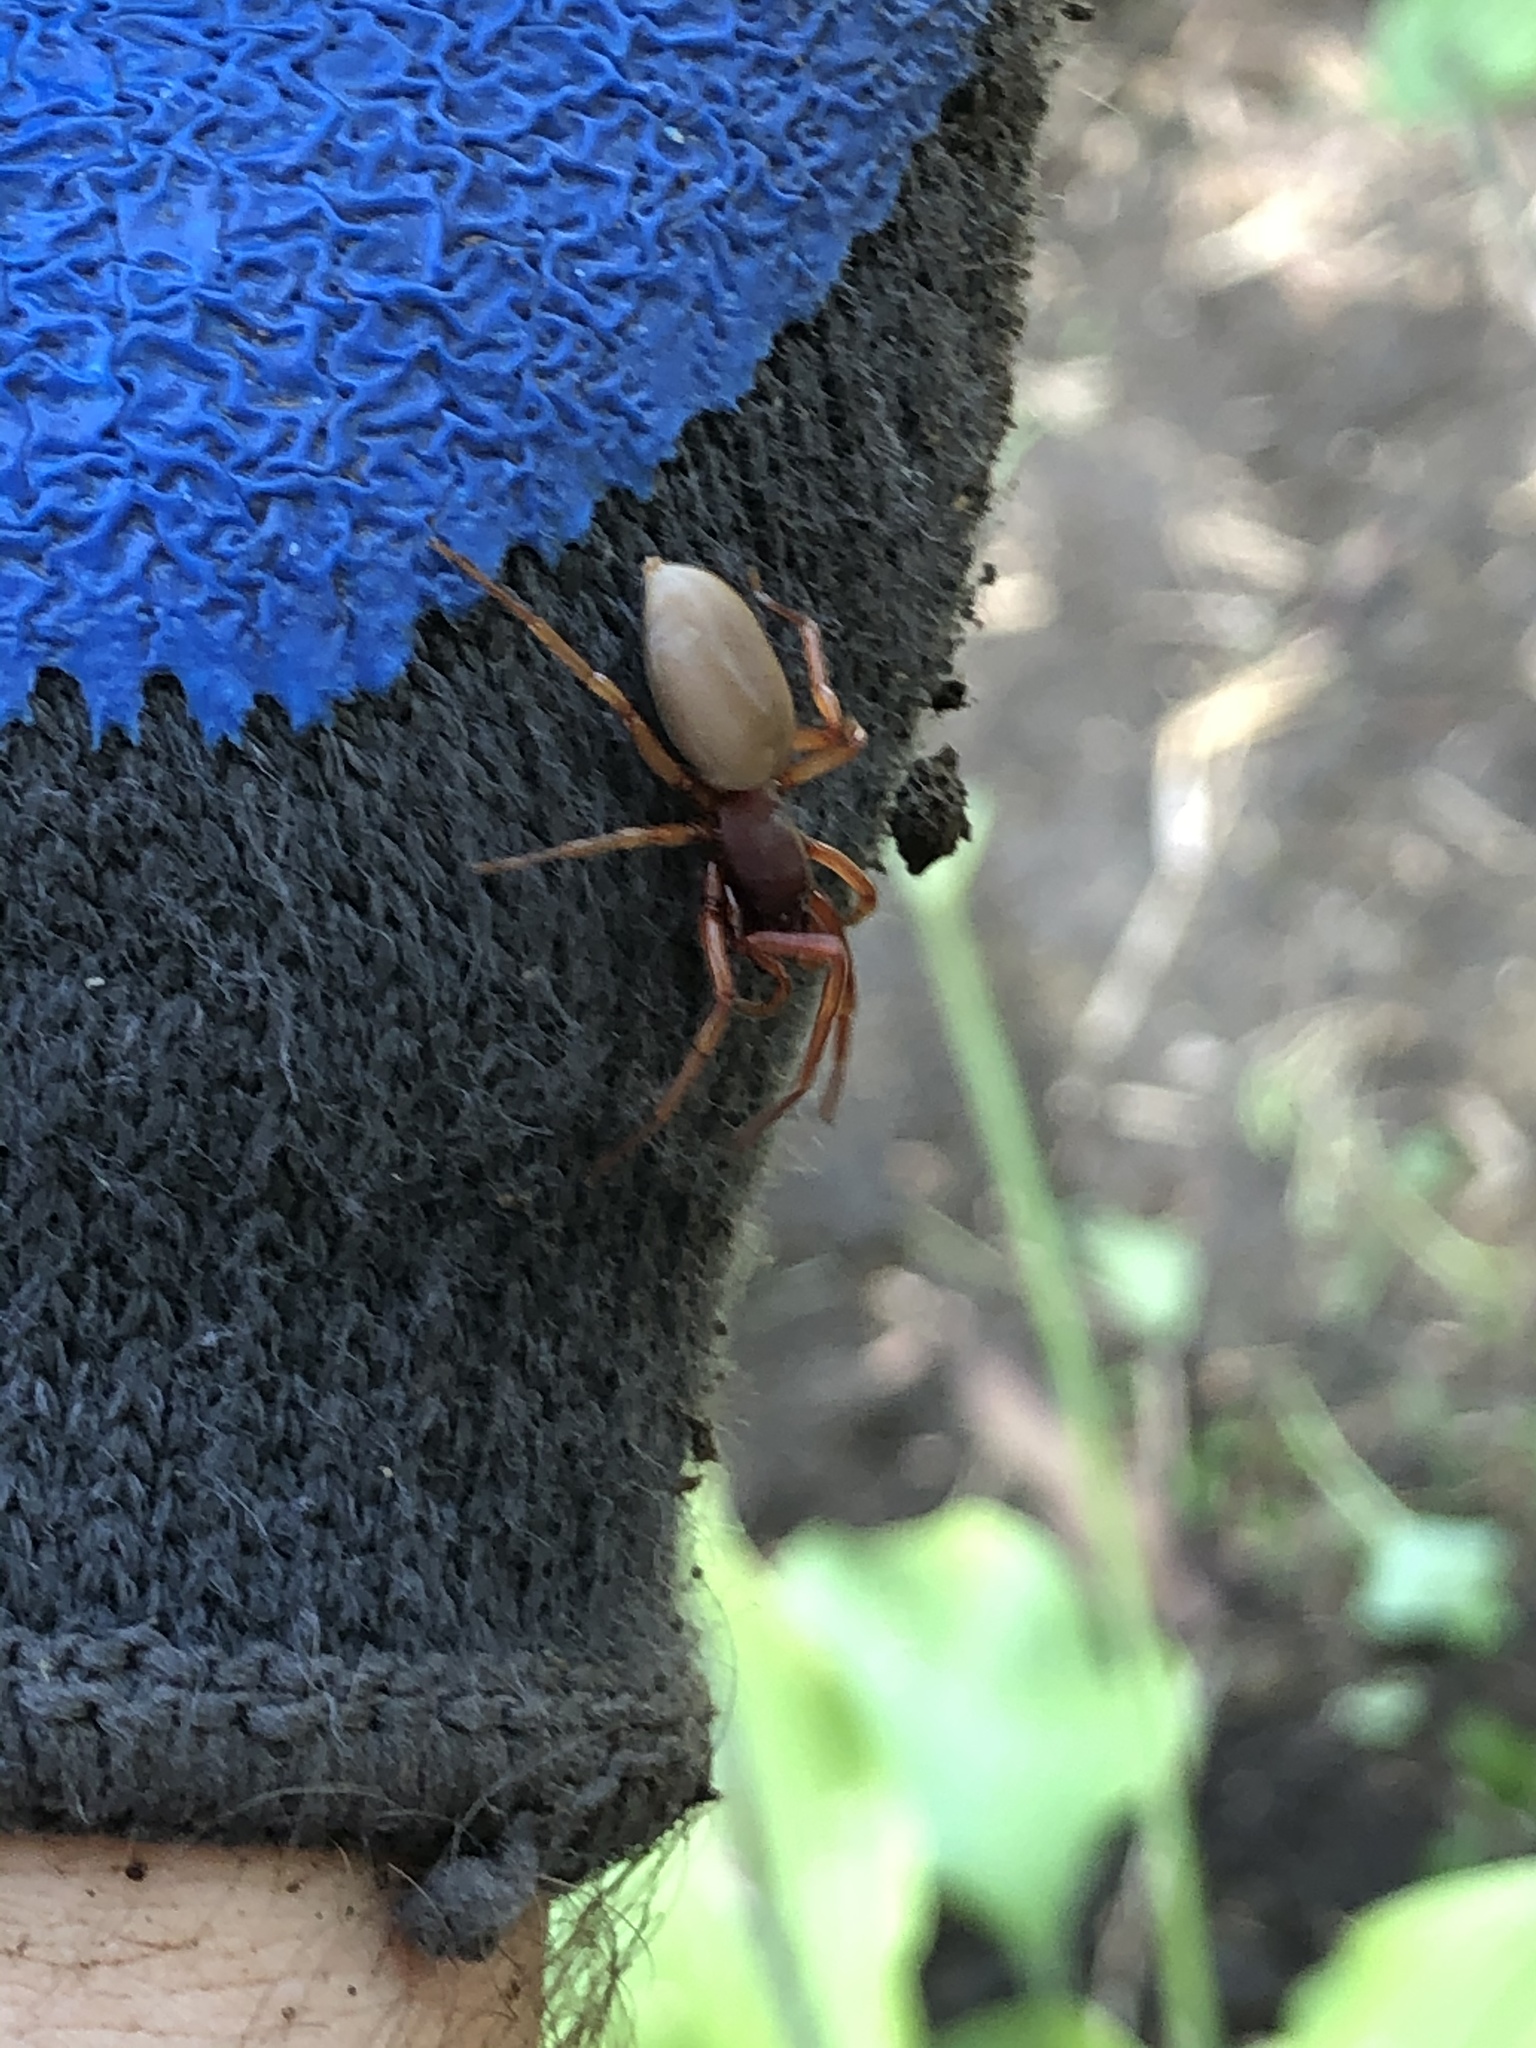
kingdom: Animalia
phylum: Arthropoda
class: Arachnida
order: Araneae
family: Dysderidae
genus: Dysdera
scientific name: Dysdera crocata
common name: Woodlouse spider
